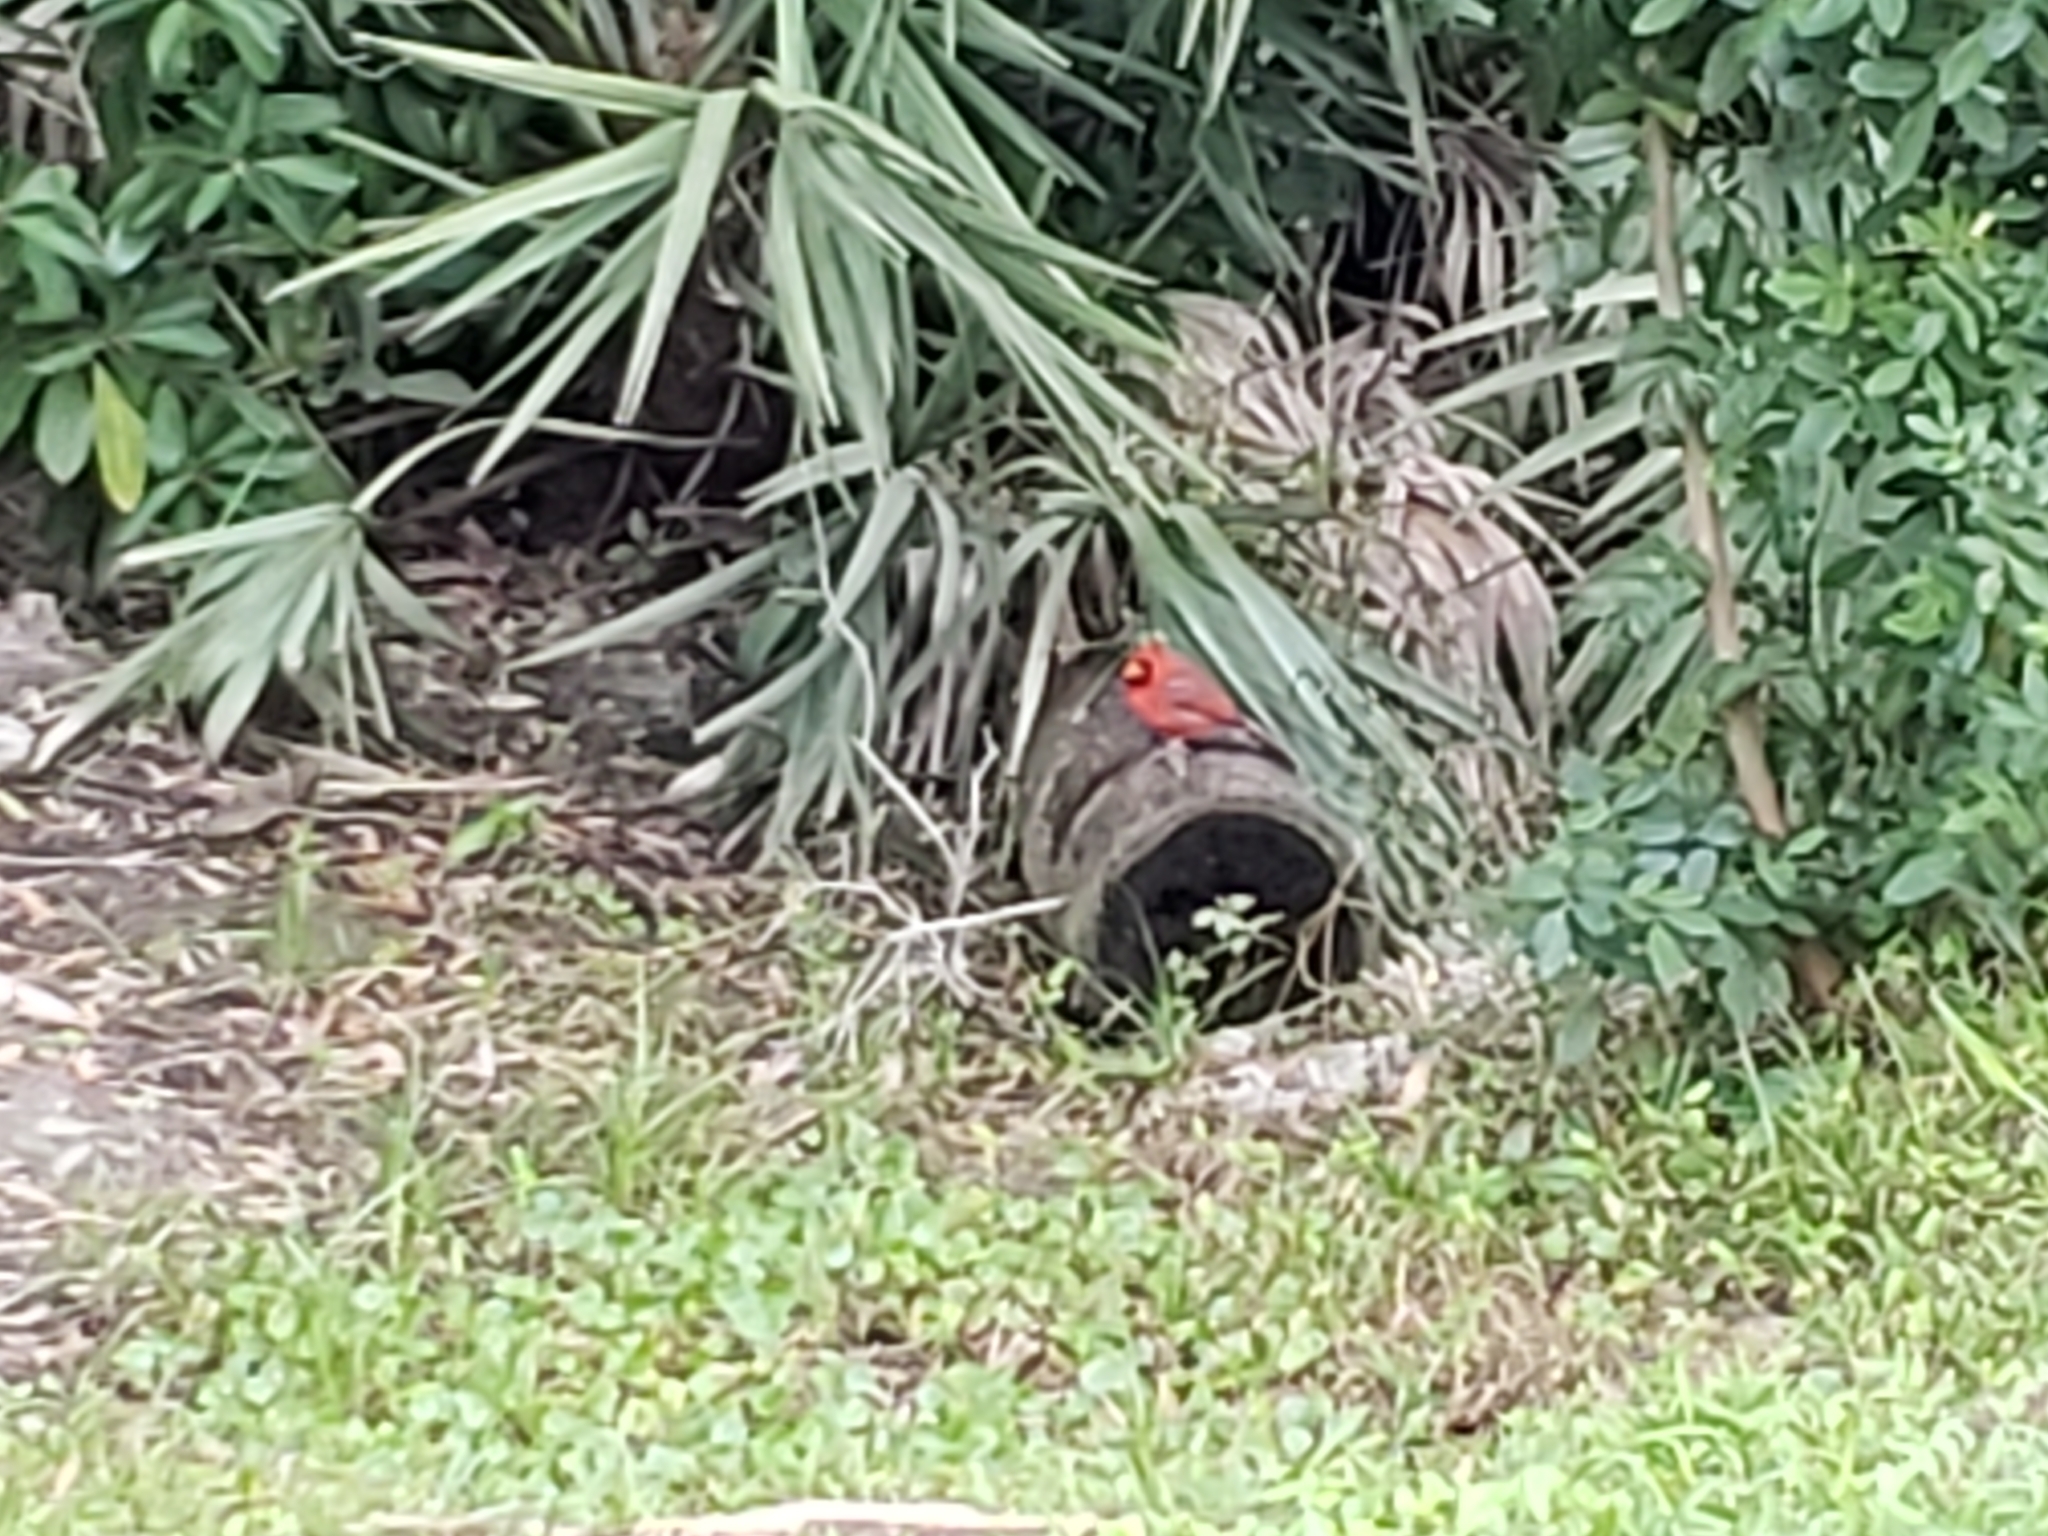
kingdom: Animalia
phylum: Chordata
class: Aves
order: Passeriformes
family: Cardinalidae
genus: Cardinalis
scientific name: Cardinalis cardinalis
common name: Northern cardinal
